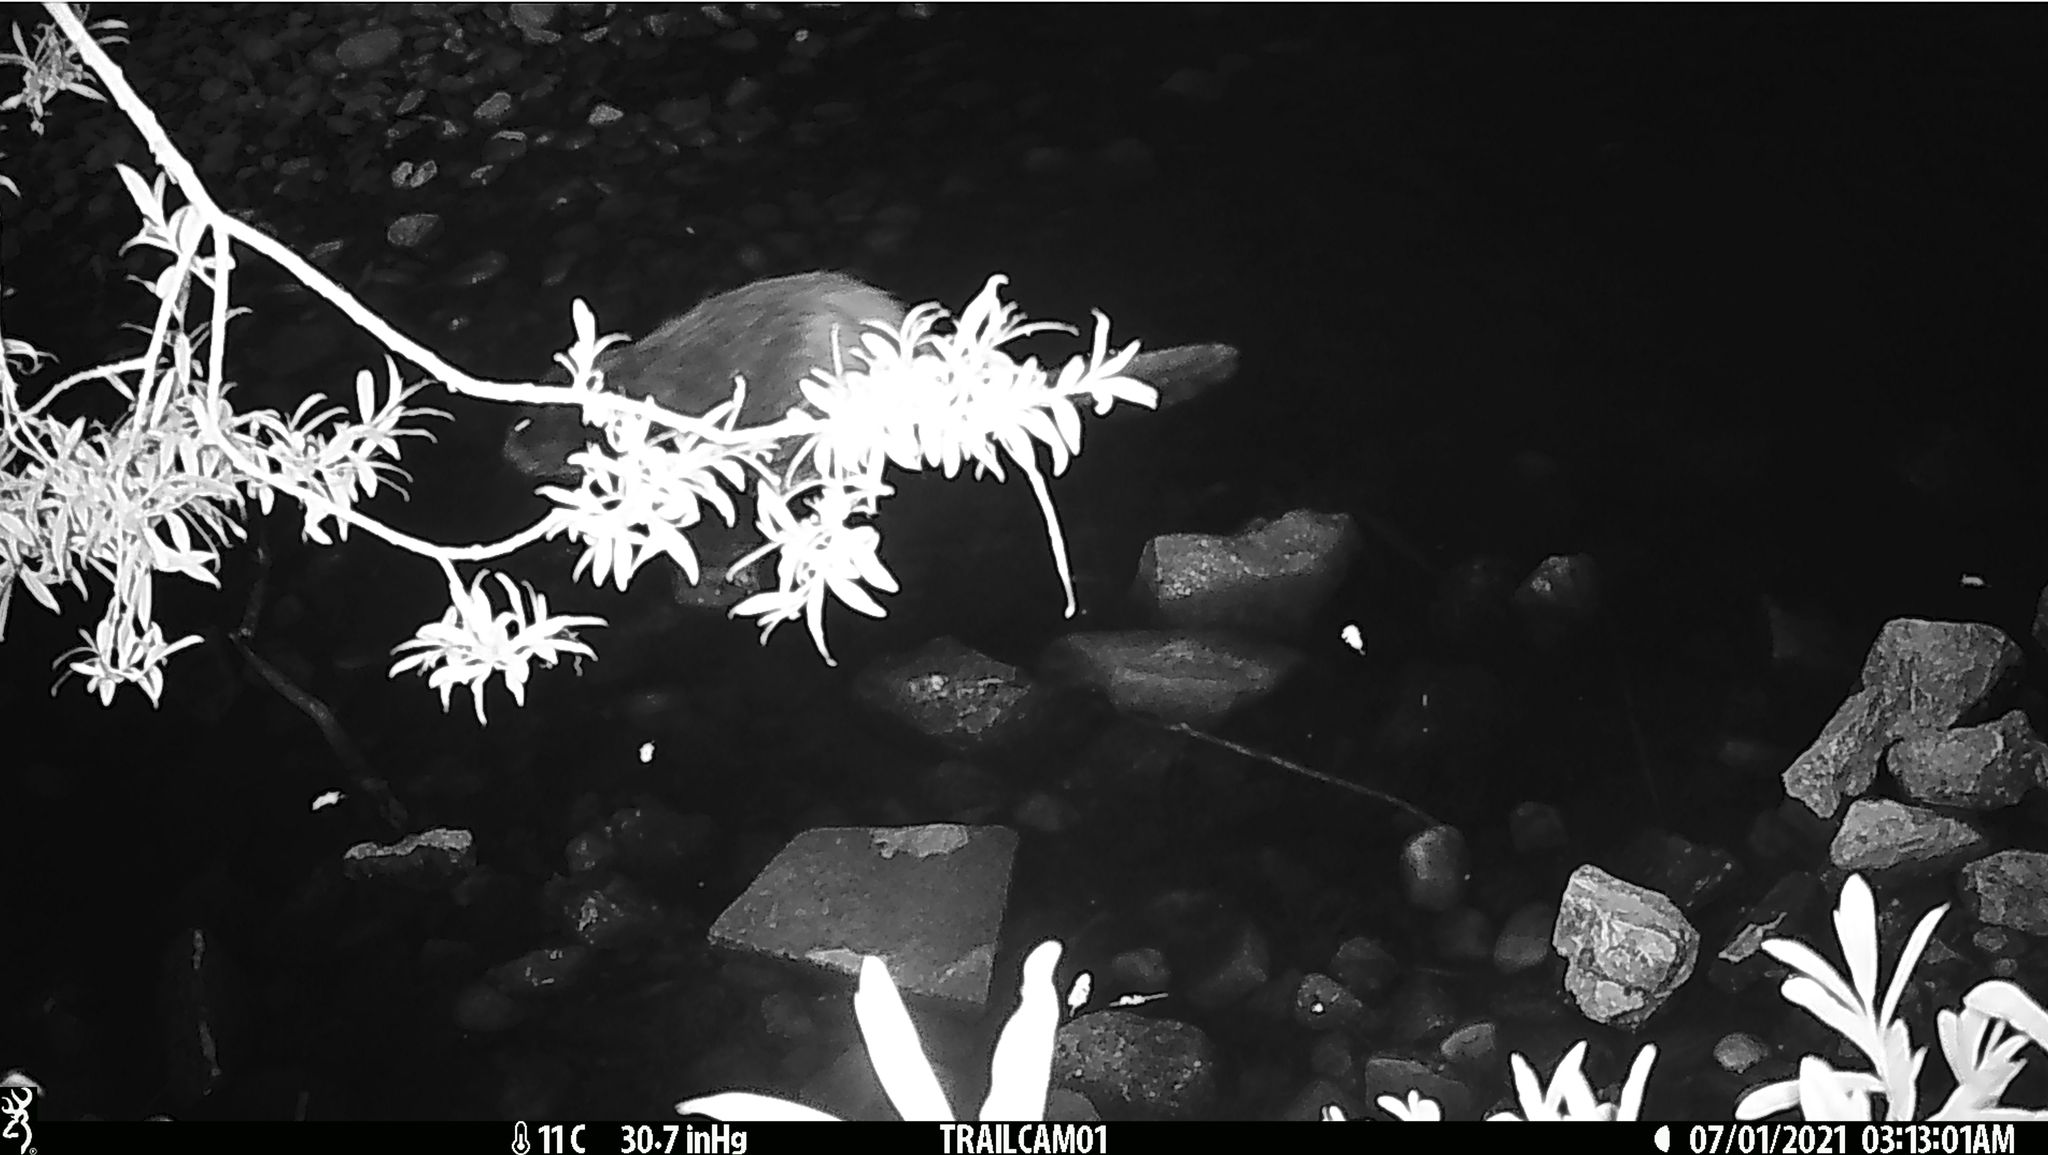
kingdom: Animalia
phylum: Chordata
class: Mammalia
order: Rodentia
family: Castoridae
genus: Castor
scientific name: Castor fiber
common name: Eurasian beaver
